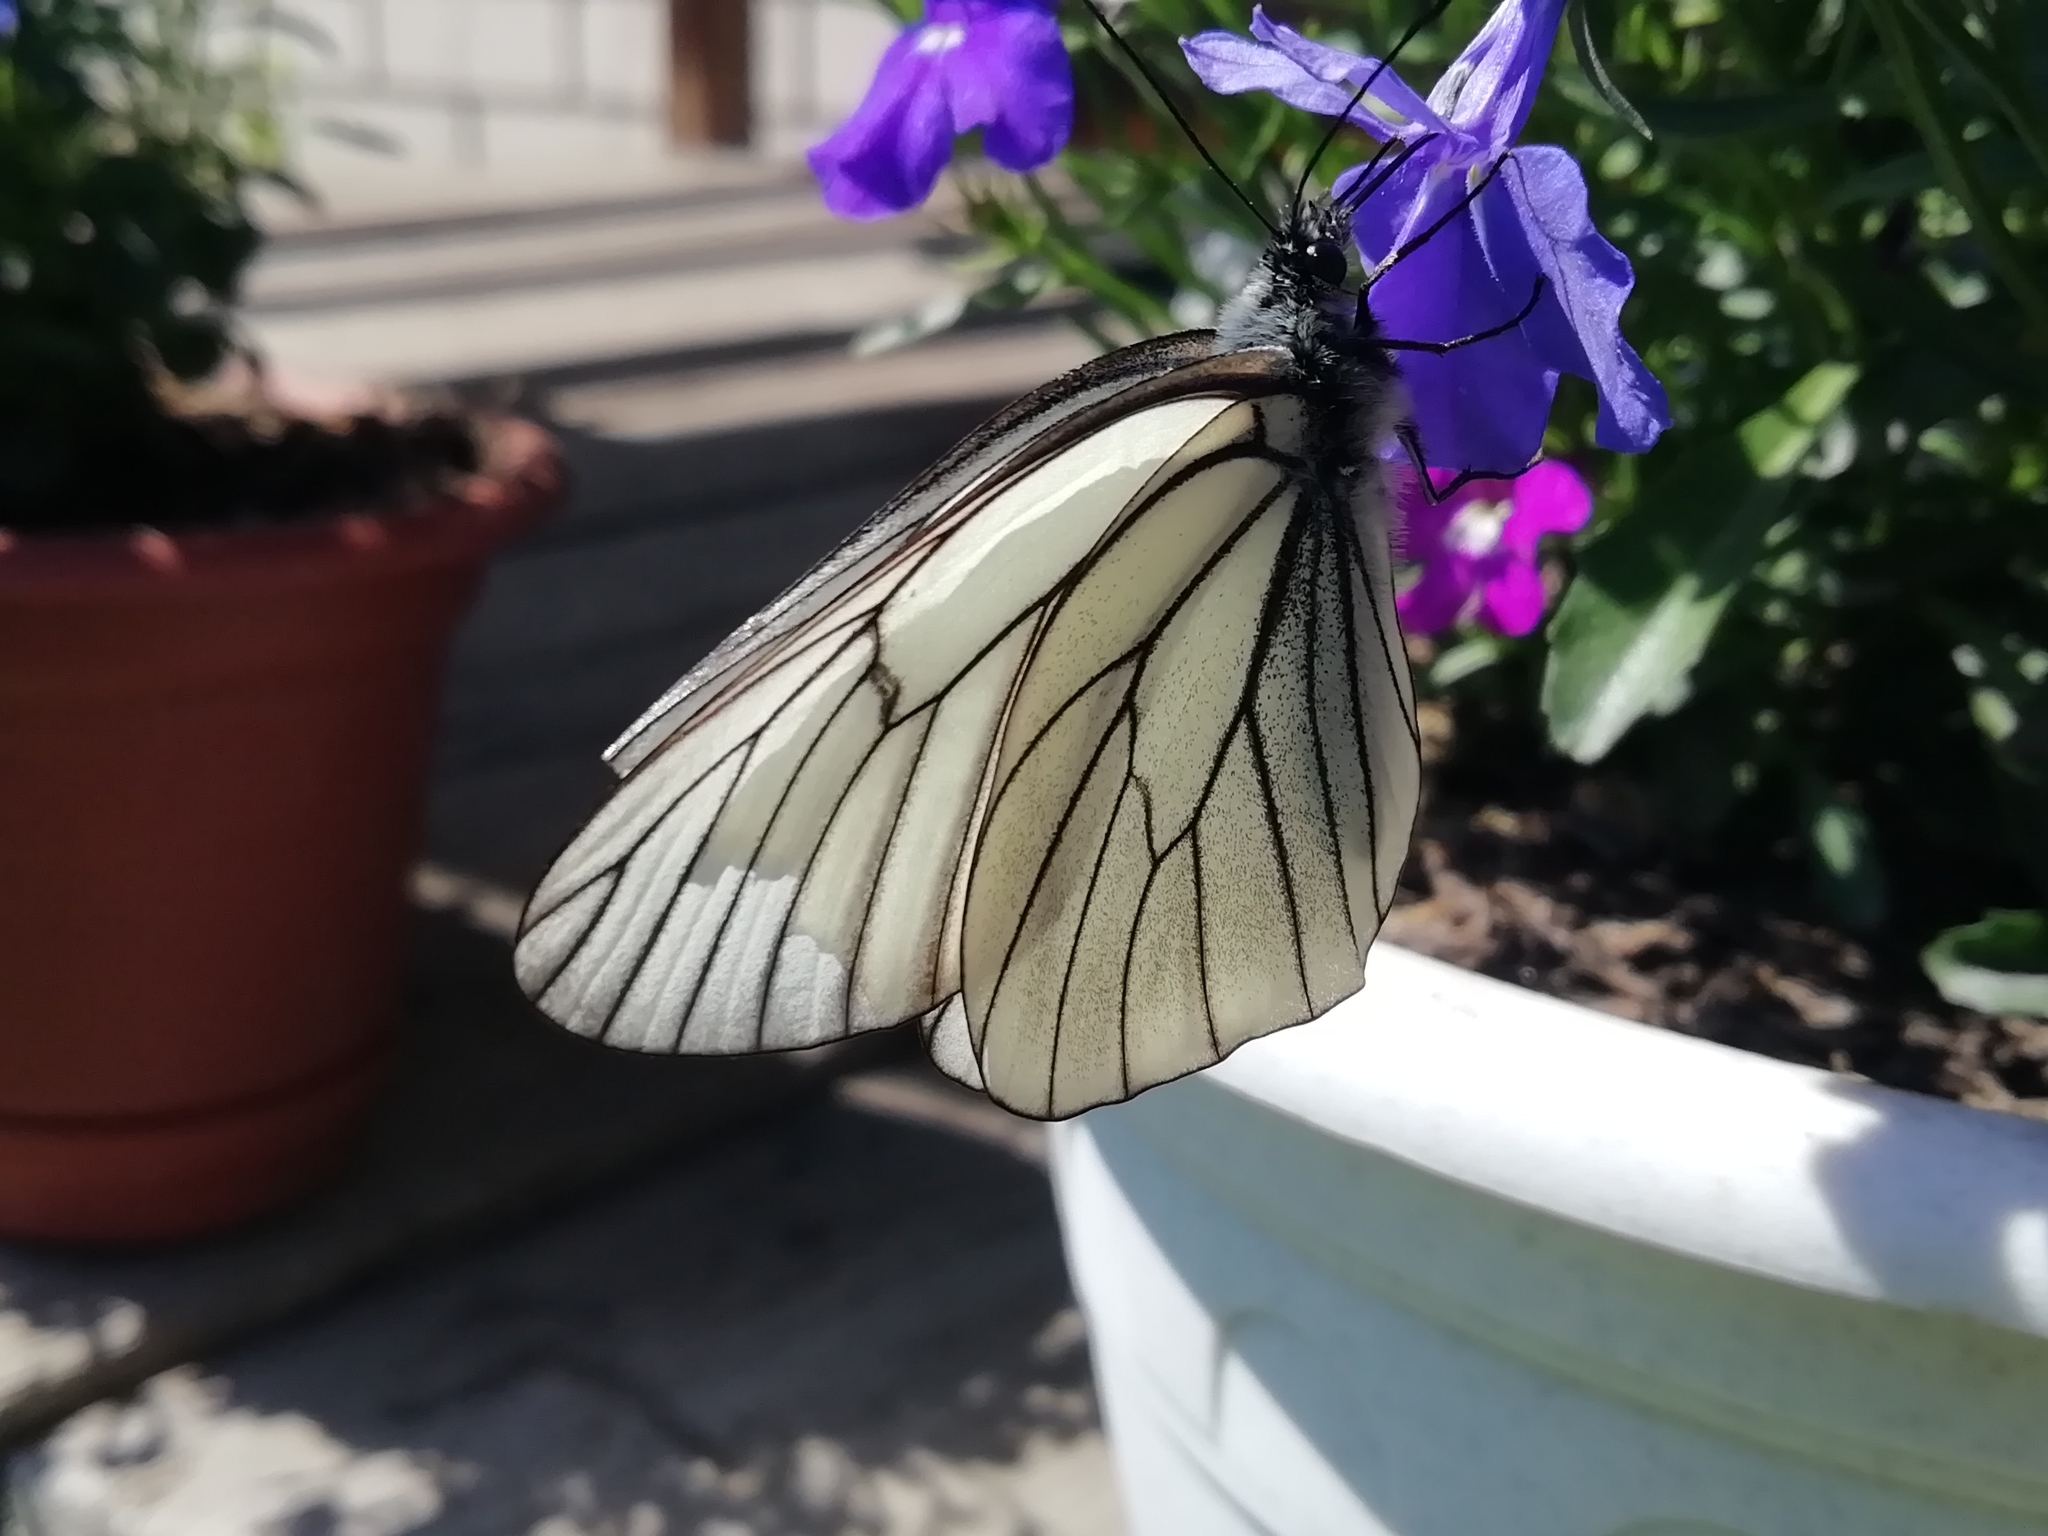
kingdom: Animalia
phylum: Arthropoda
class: Insecta
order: Lepidoptera
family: Pieridae
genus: Aporia
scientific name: Aporia crataegi
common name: Black-veined white
